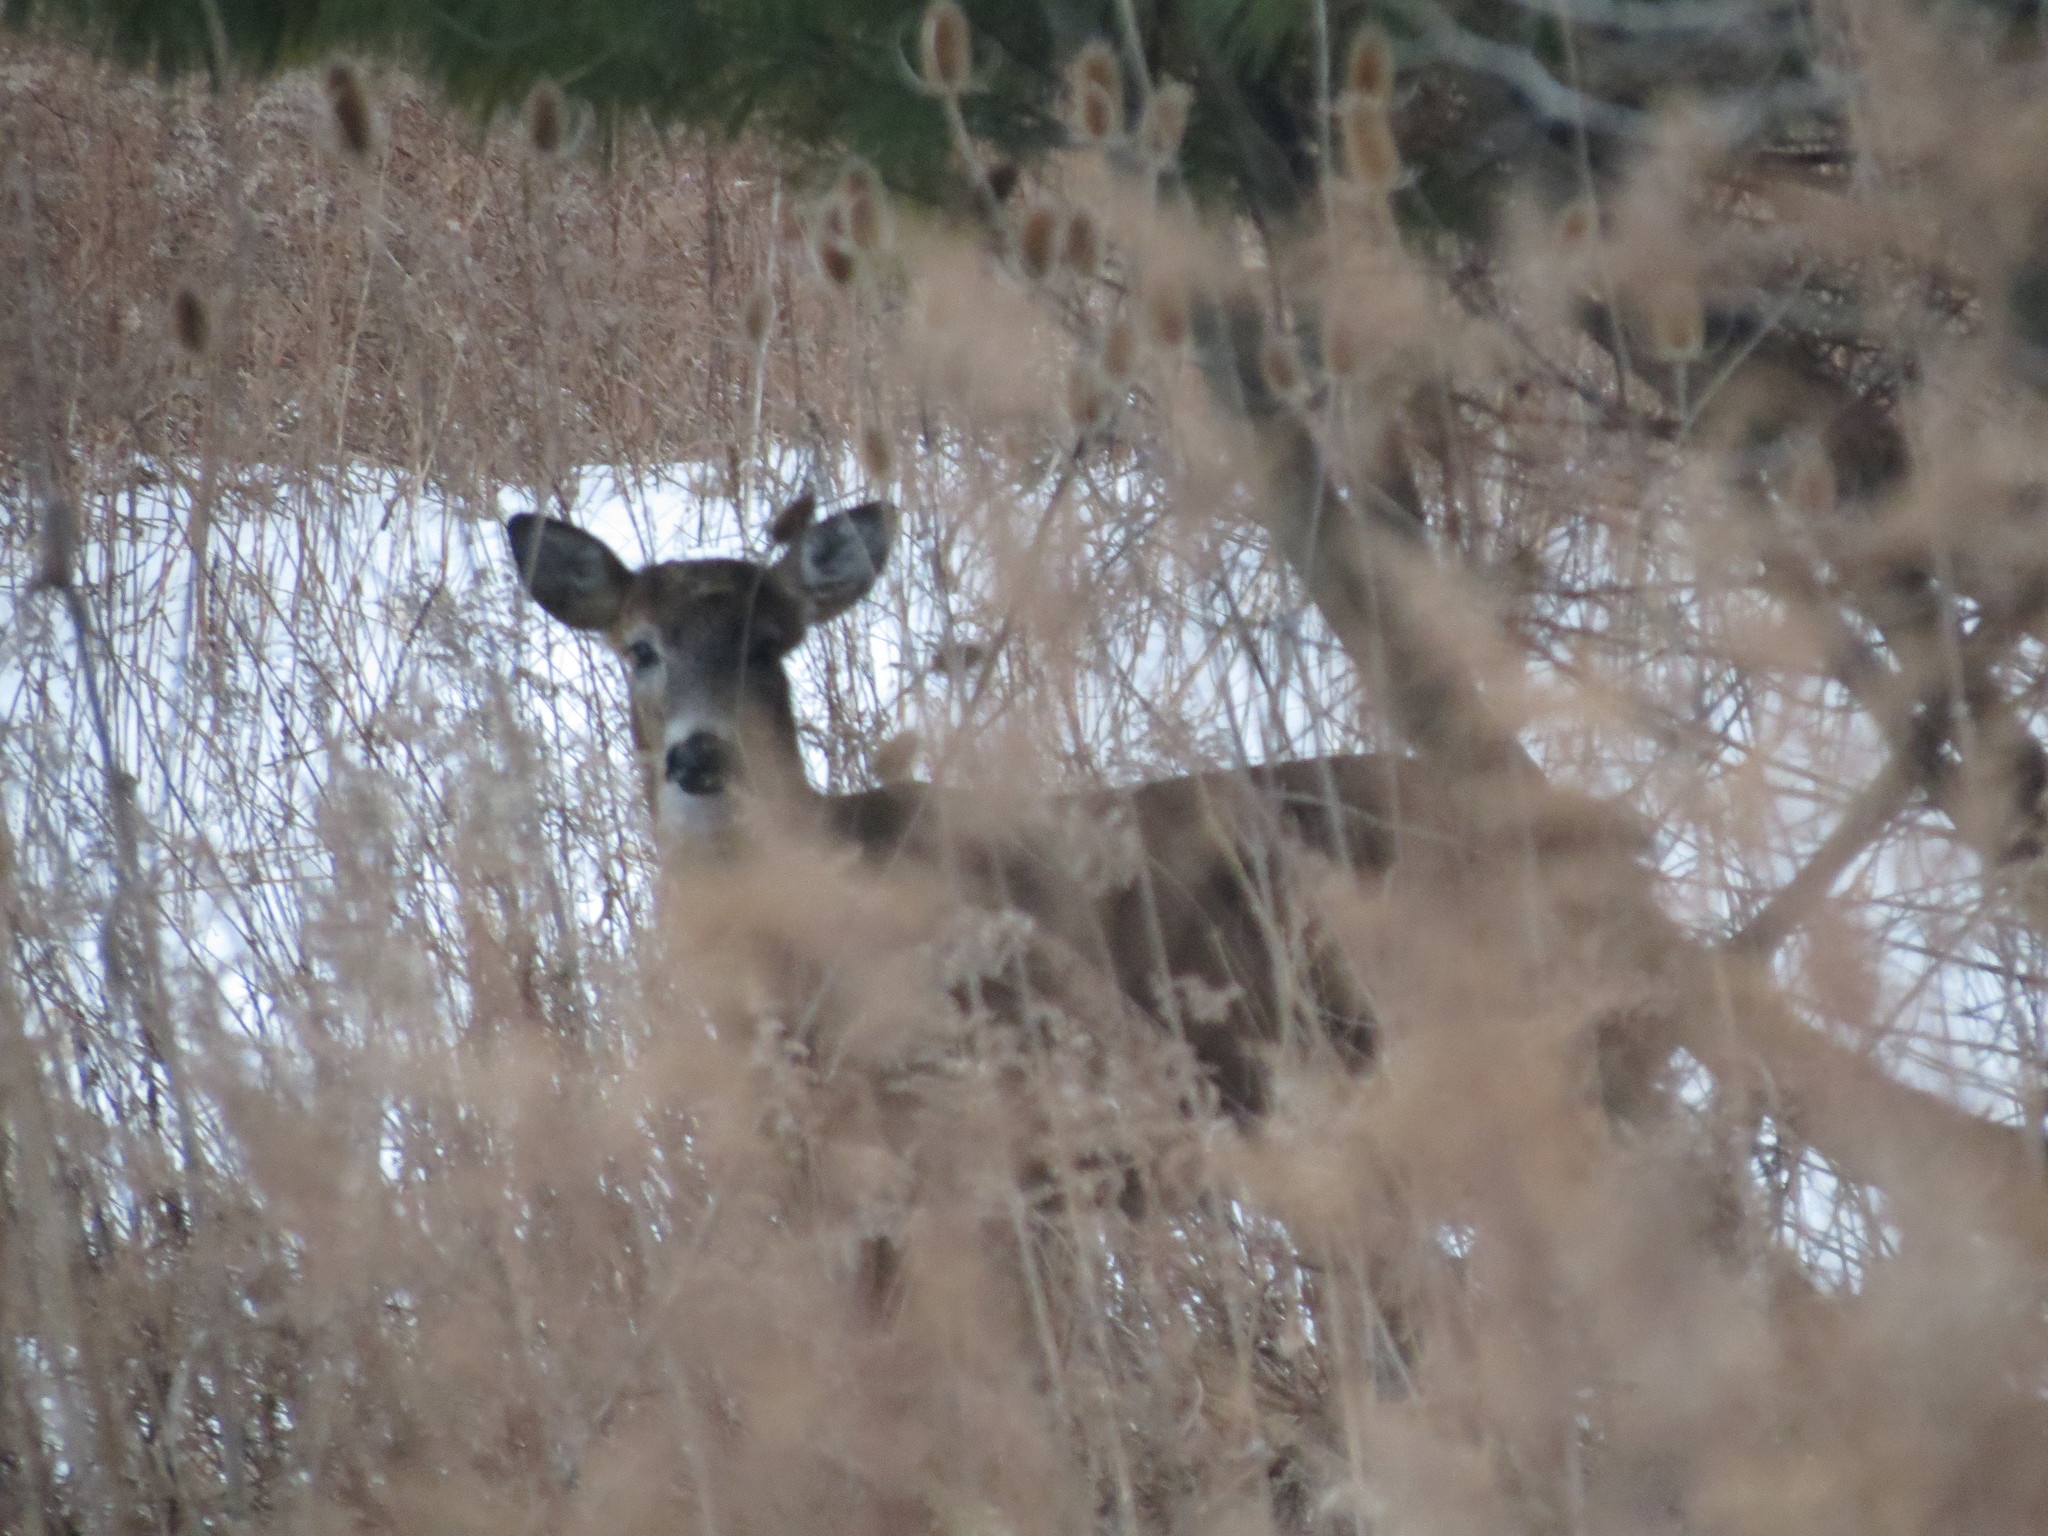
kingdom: Animalia
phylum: Chordata
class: Mammalia
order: Artiodactyla
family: Cervidae
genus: Odocoileus
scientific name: Odocoileus virginianus
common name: White-tailed deer
